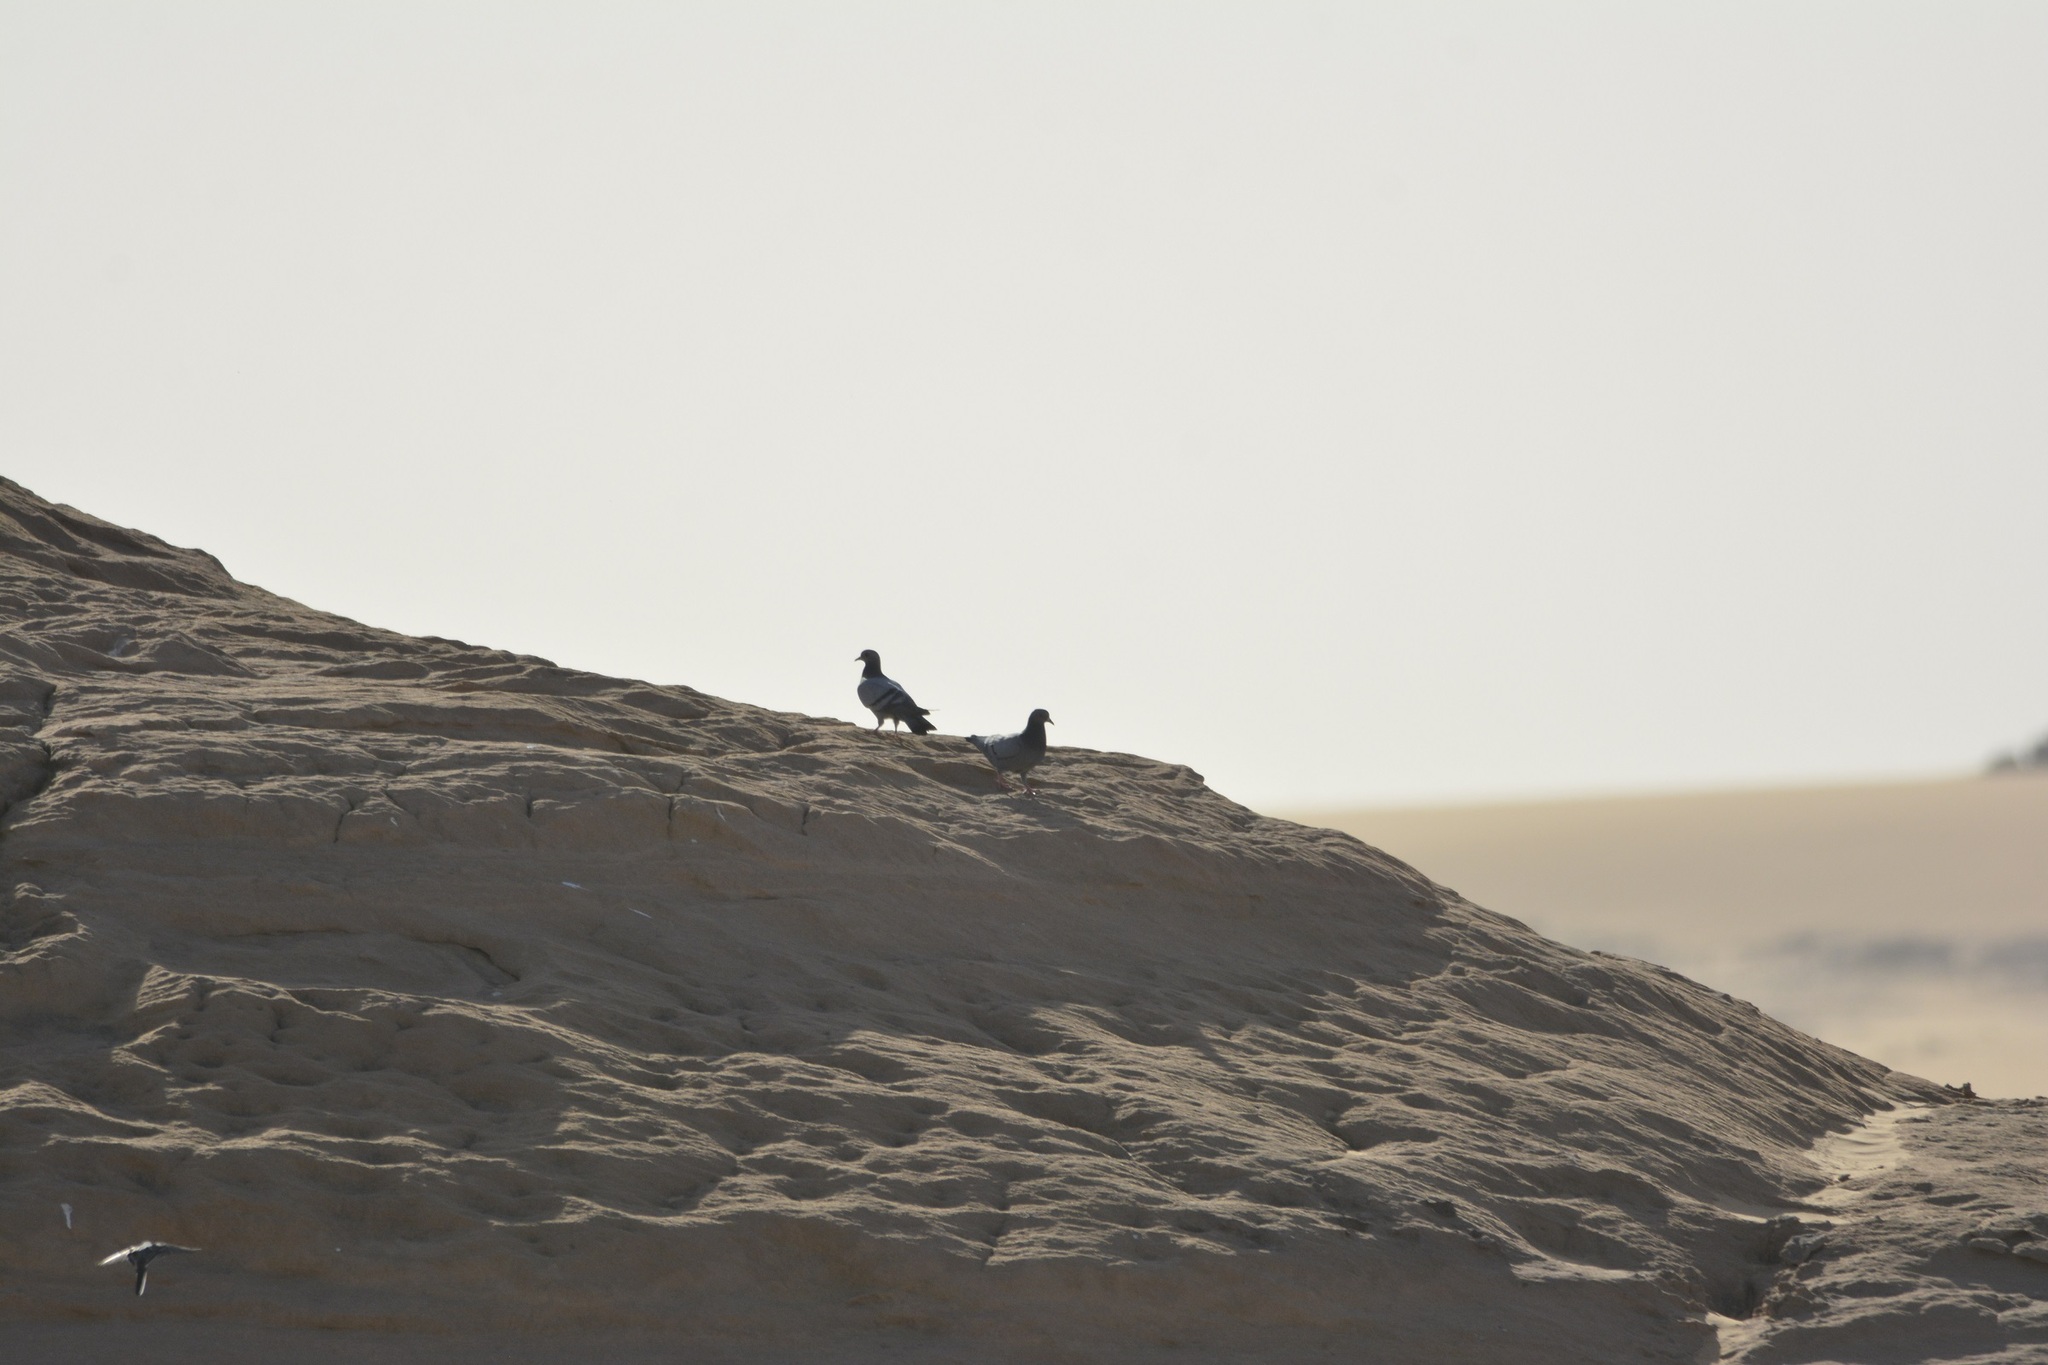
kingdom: Animalia
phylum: Chordata
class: Aves
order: Columbiformes
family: Columbidae
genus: Columba
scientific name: Columba livia
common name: Rock pigeon
